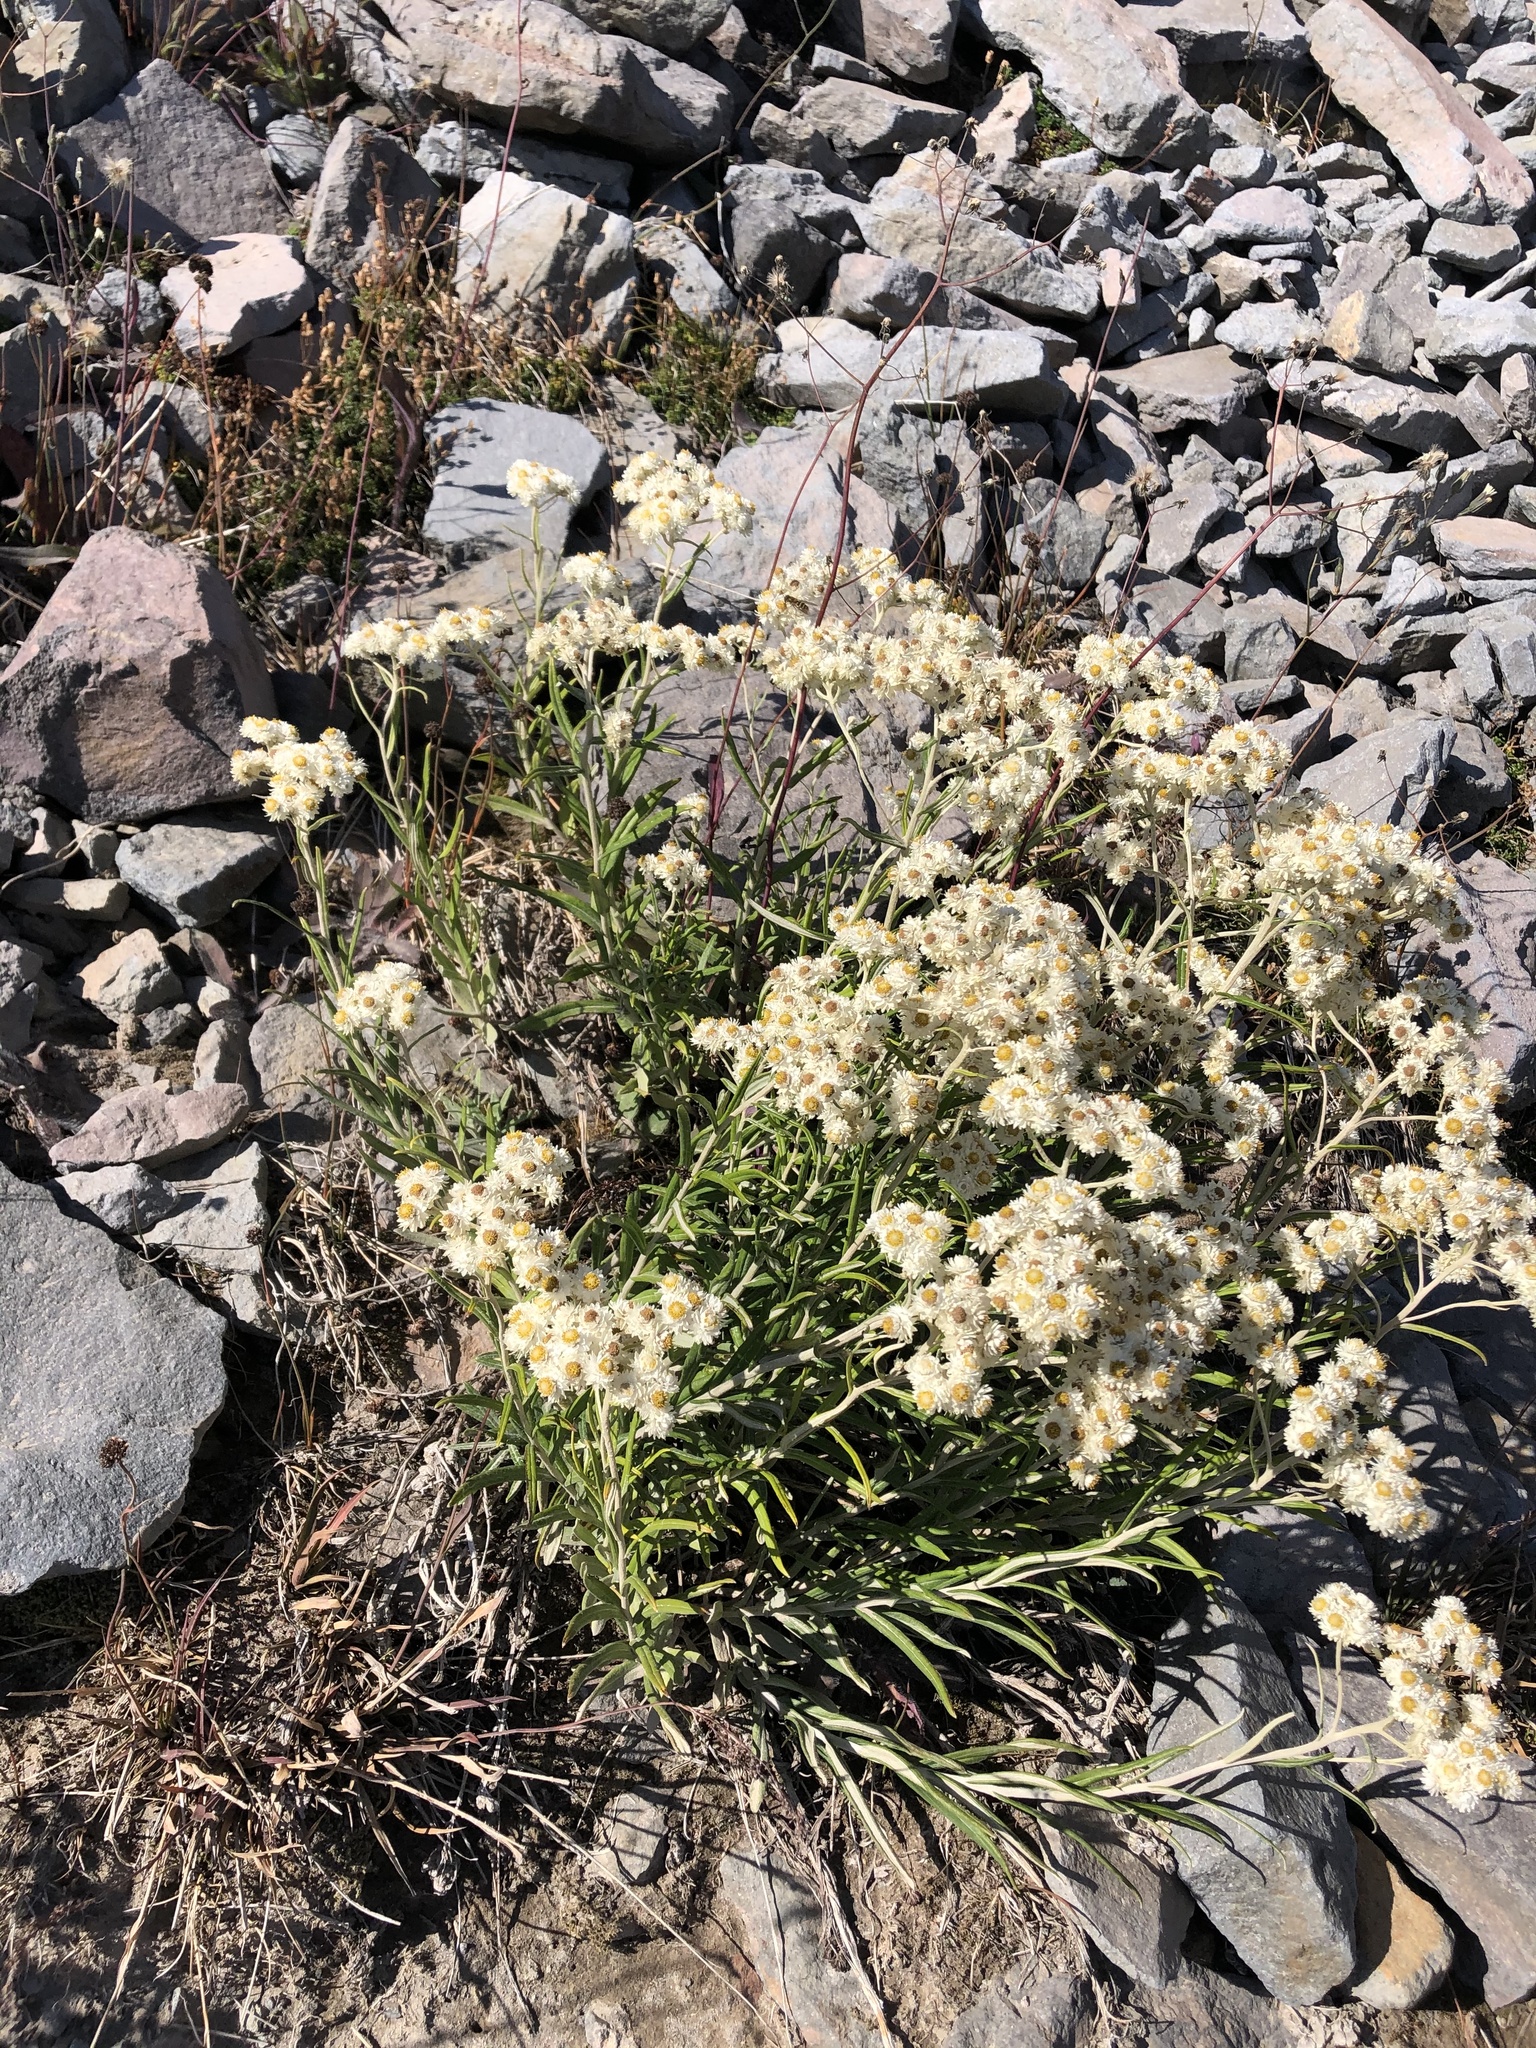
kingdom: Plantae
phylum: Tracheophyta
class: Magnoliopsida
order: Asterales
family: Asteraceae
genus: Anaphalis
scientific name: Anaphalis margaritacea
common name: Pearly everlasting
